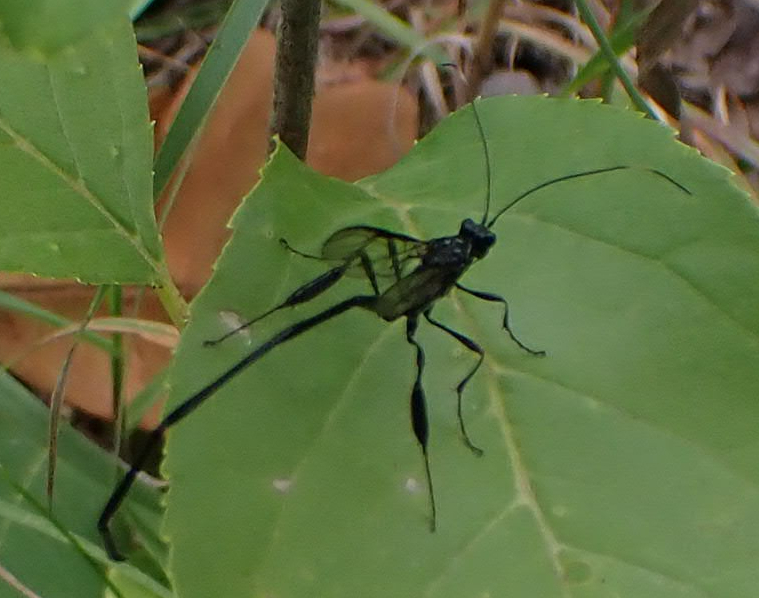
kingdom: Animalia
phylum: Arthropoda
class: Insecta
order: Hymenoptera
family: Pelecinidae
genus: Pelecinus
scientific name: Pelecinus polyturator
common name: American pelecinid wasp
